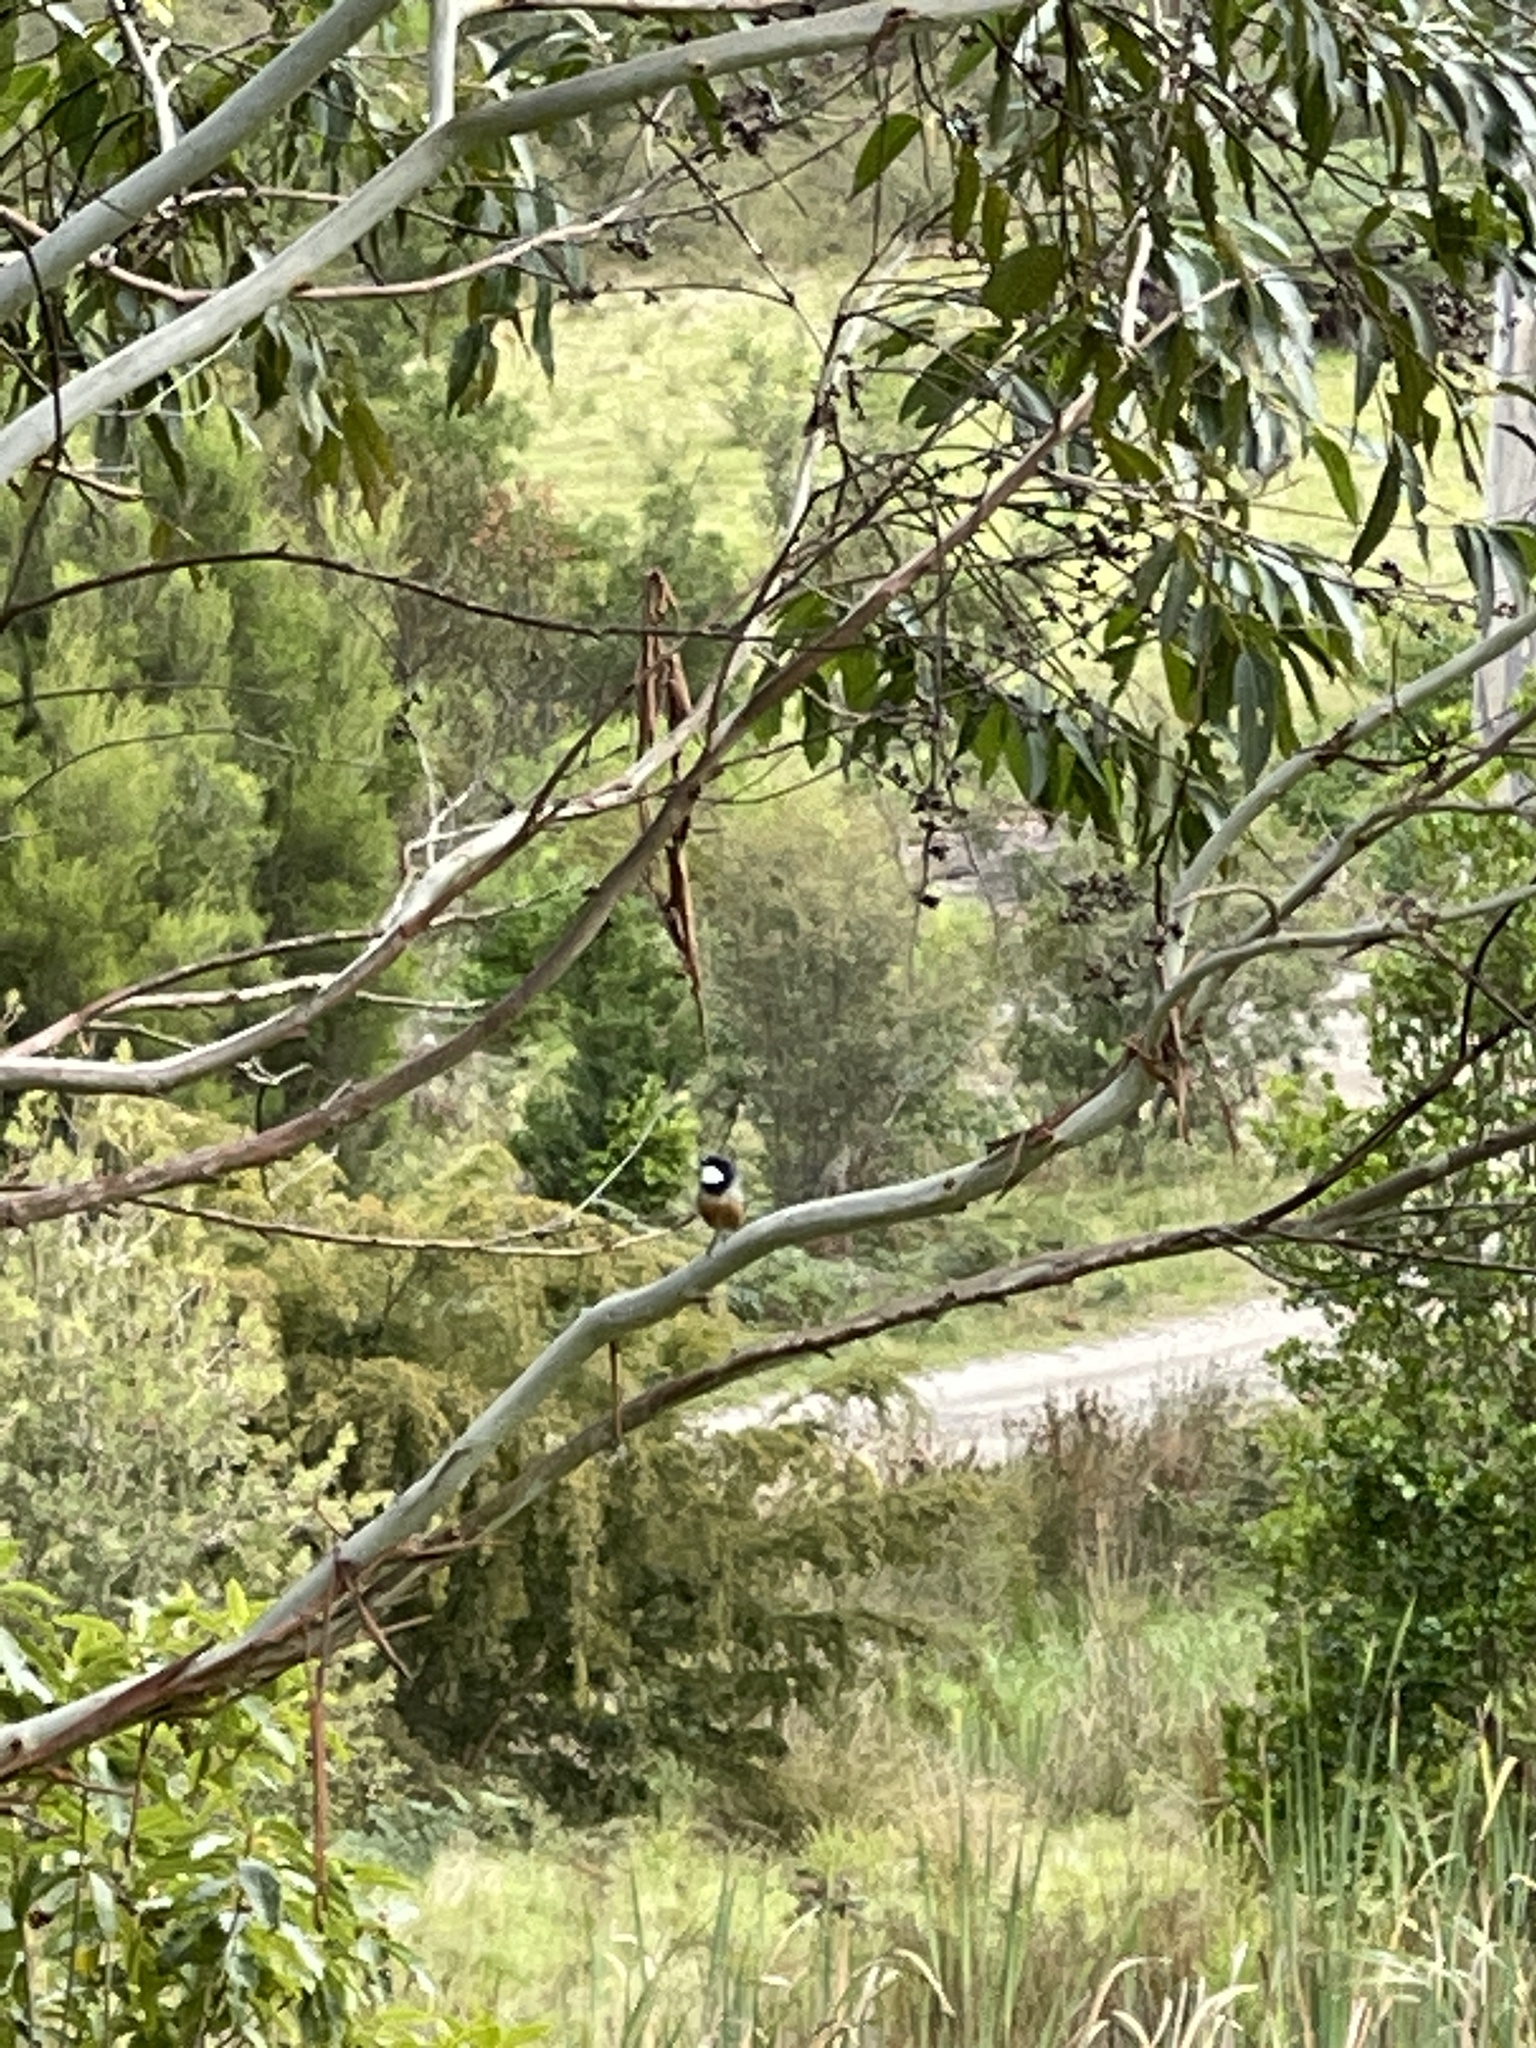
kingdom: Animalia
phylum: Chordata
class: Aves
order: Passeriformes
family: Pachycephalidae
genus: Pachycephala
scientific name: Pachycephala rufiventris
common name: Rufous whistler
